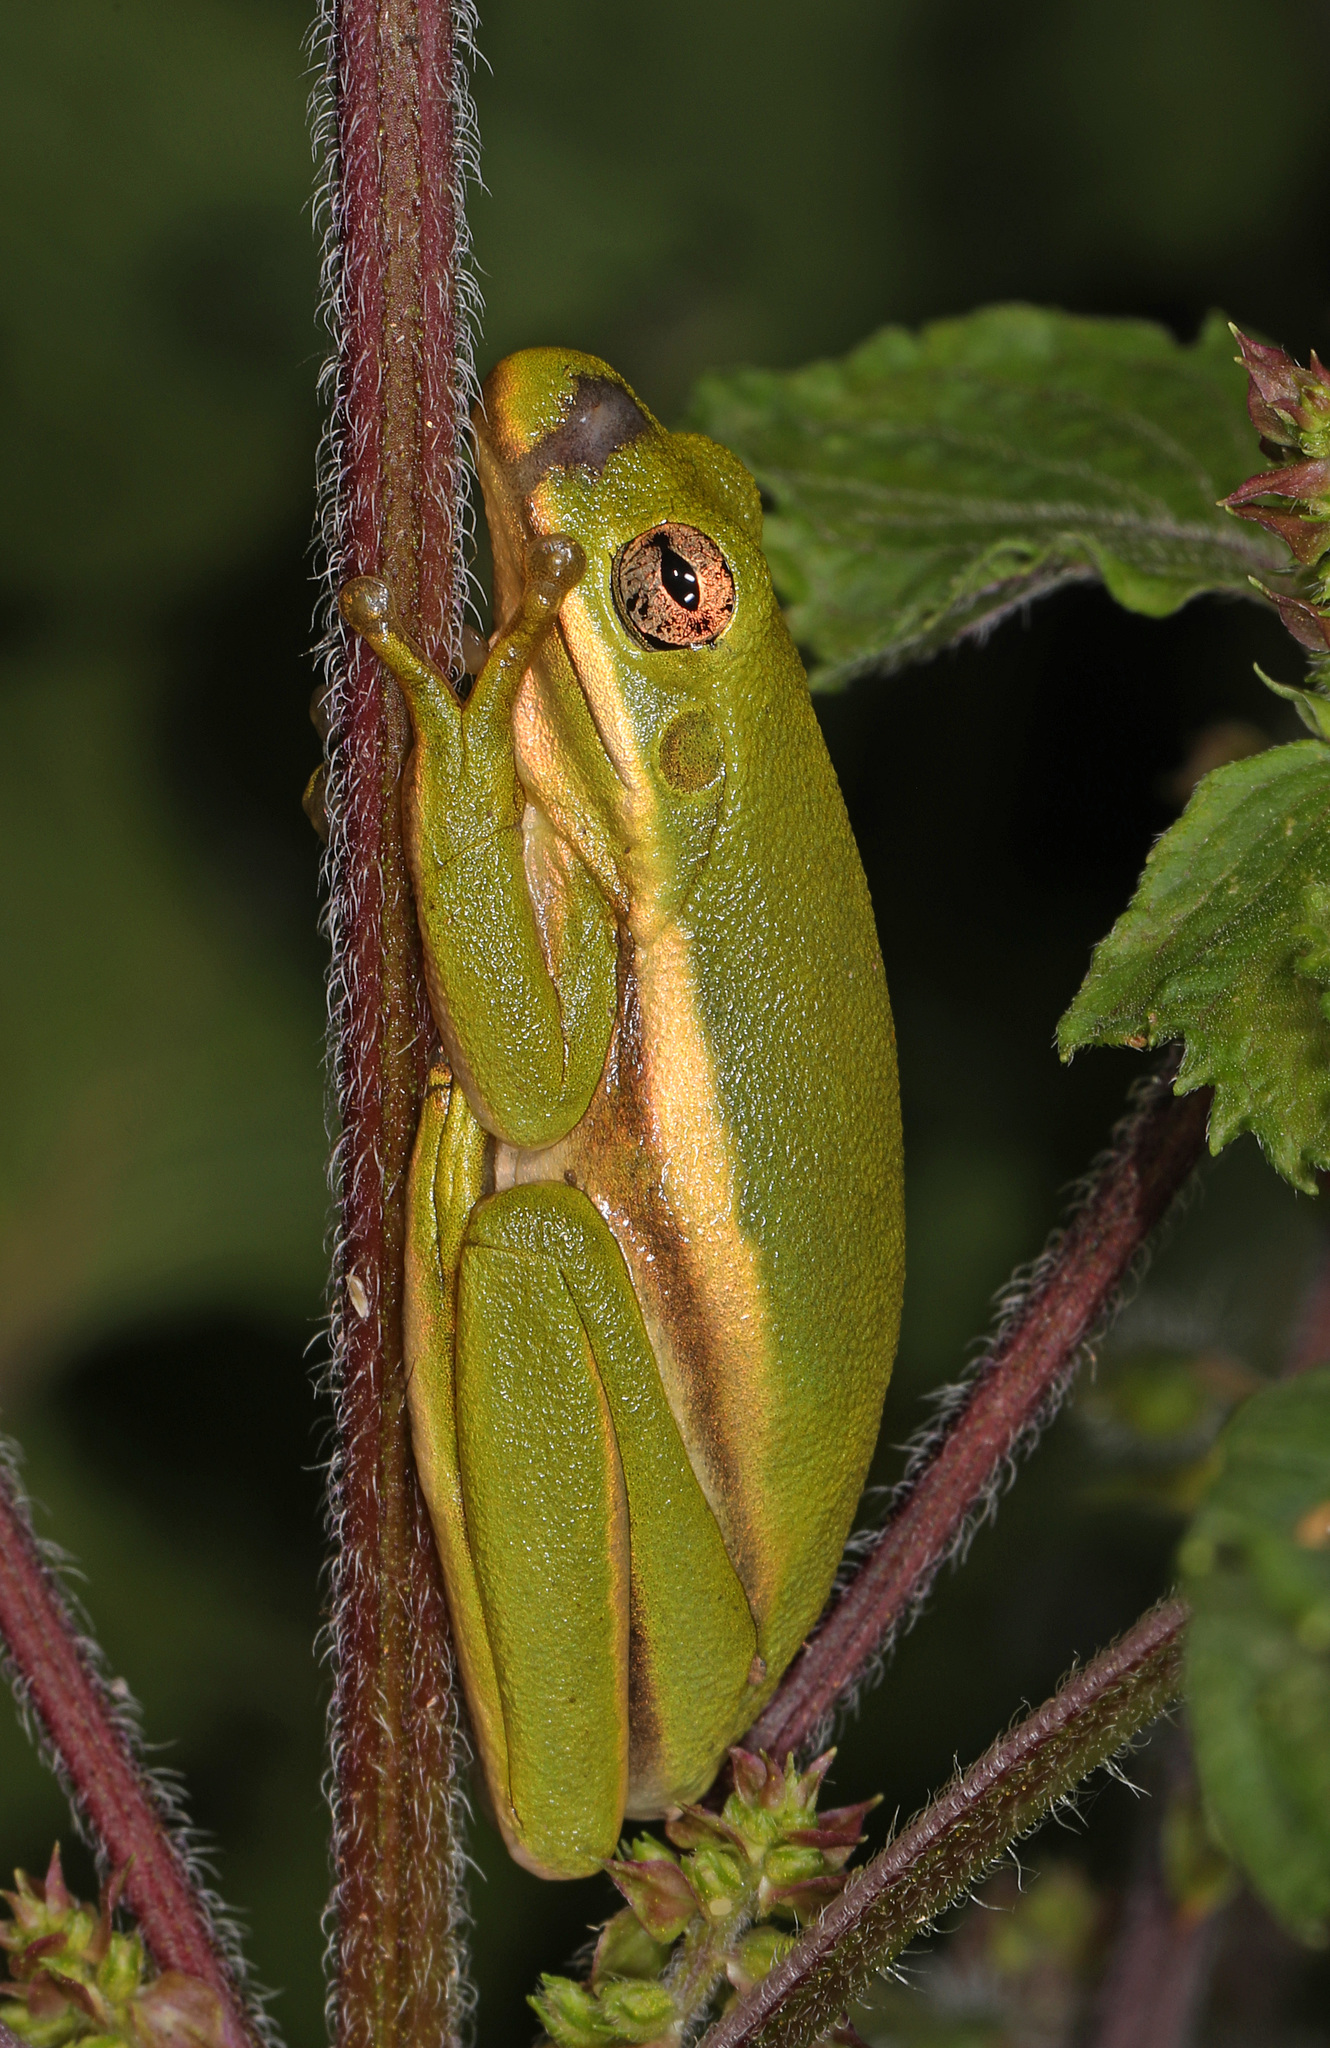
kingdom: Animalia
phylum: Chordata
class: Amphibia
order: Anura
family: Hylidae
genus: Dryophytes
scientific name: Dryophytes cinereus
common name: Green treefrog
